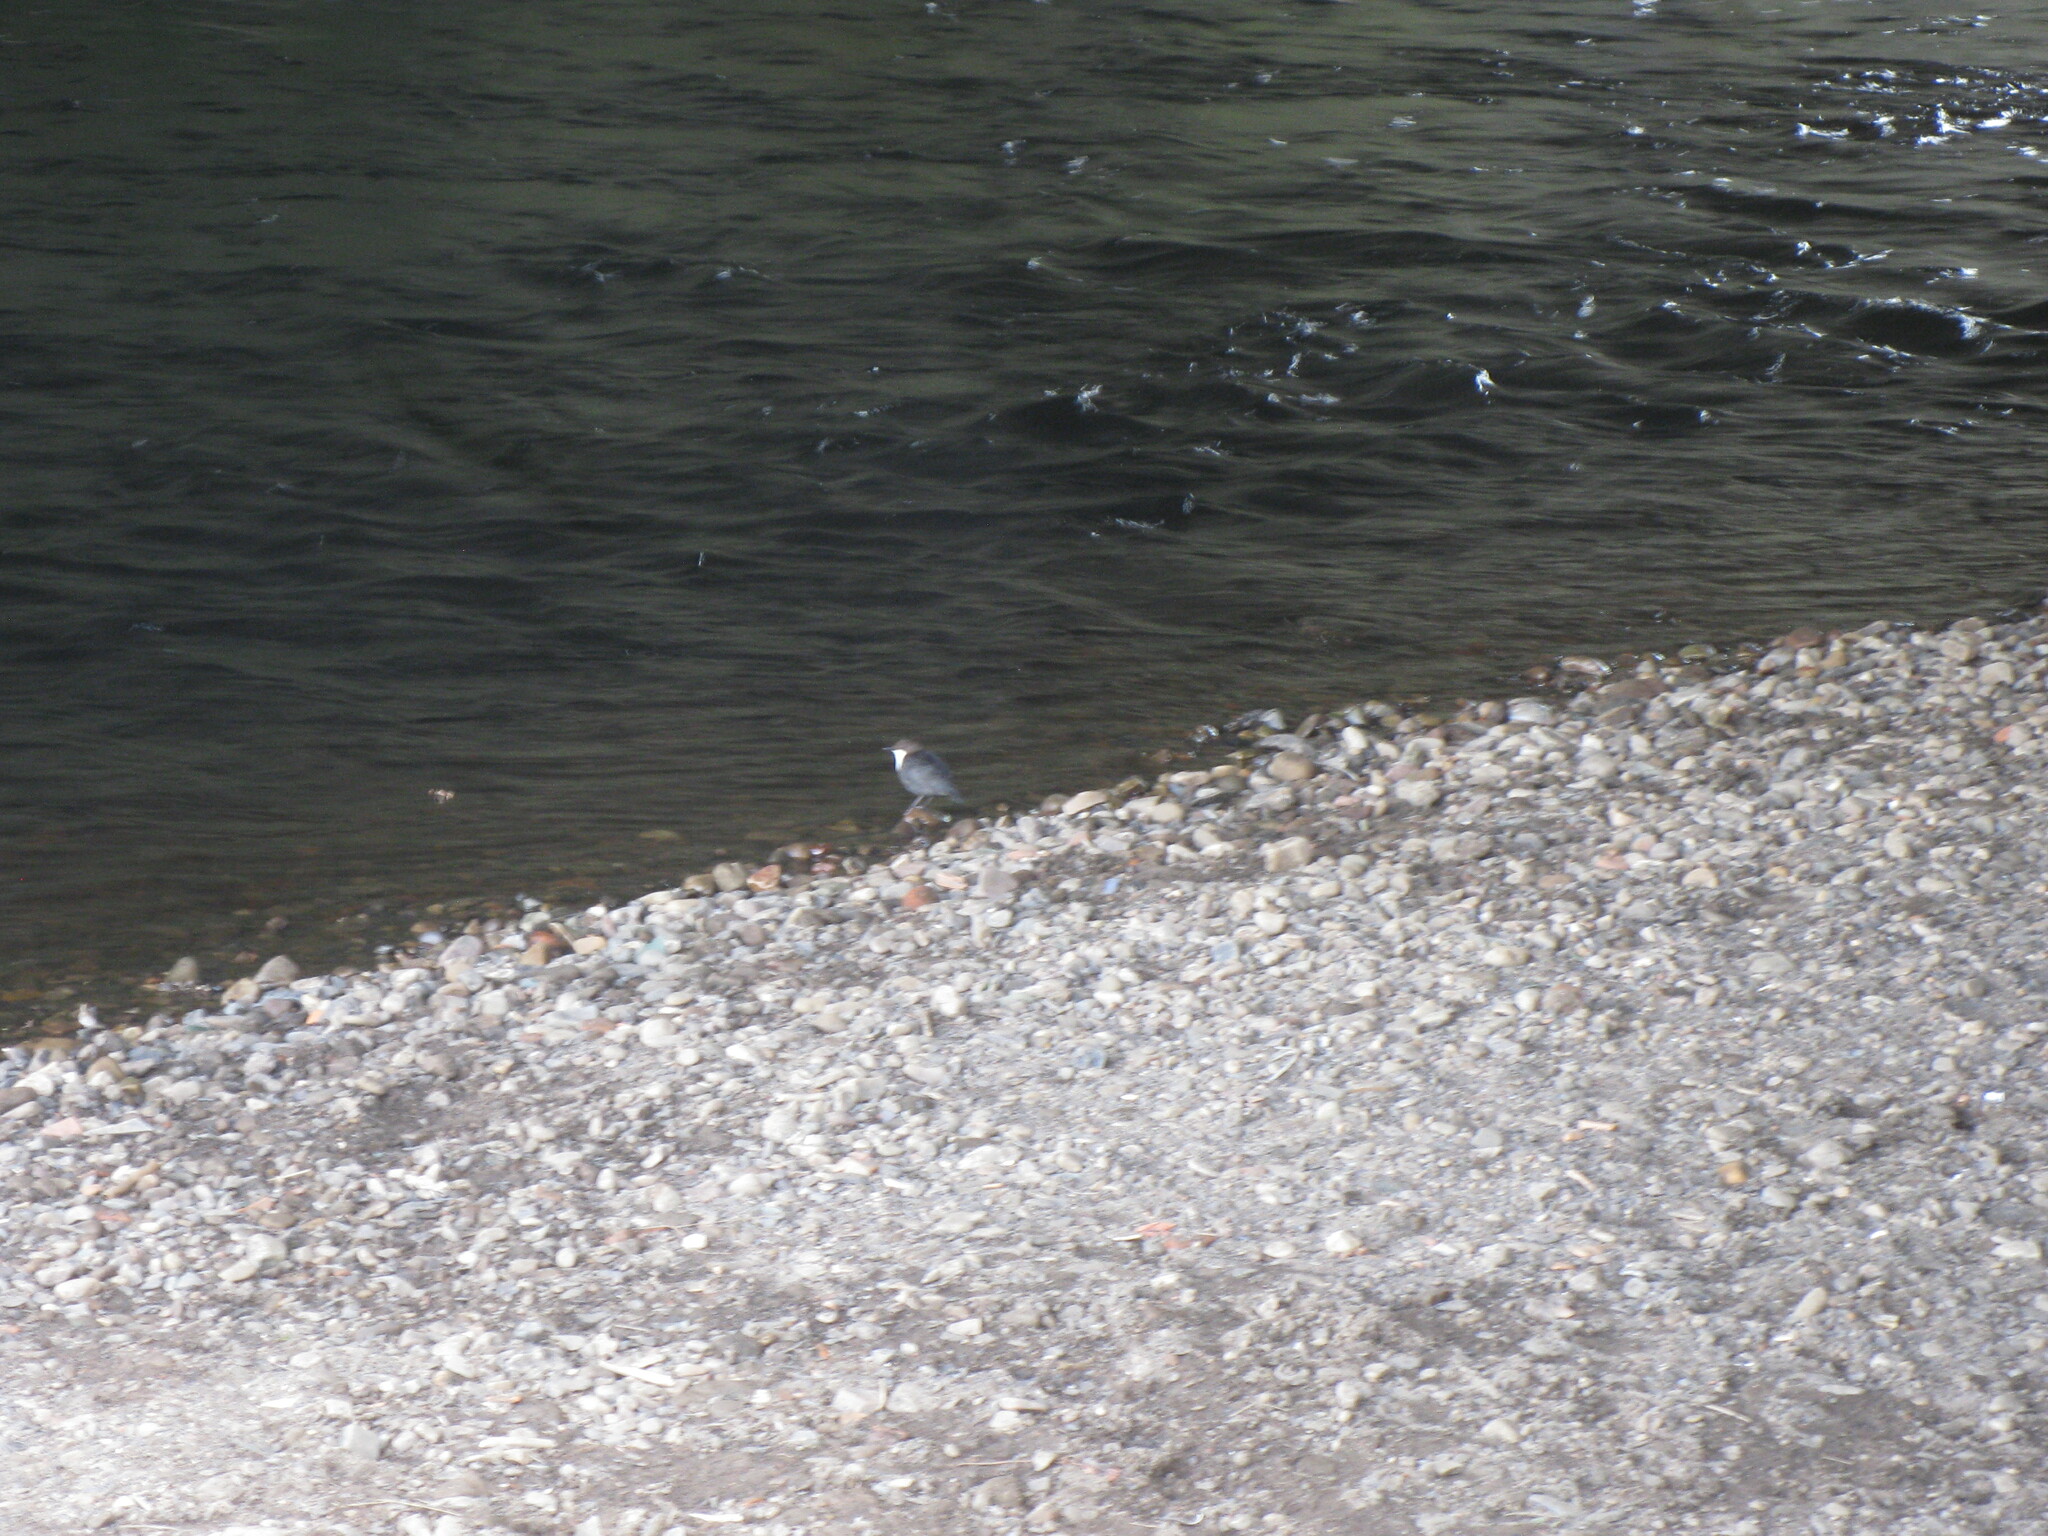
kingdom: Animalia
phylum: Chordata
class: Aves
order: Passeriformes
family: Cinclidae
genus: Cinclus
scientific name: Cinclus cinclus
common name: White-throated dipper
